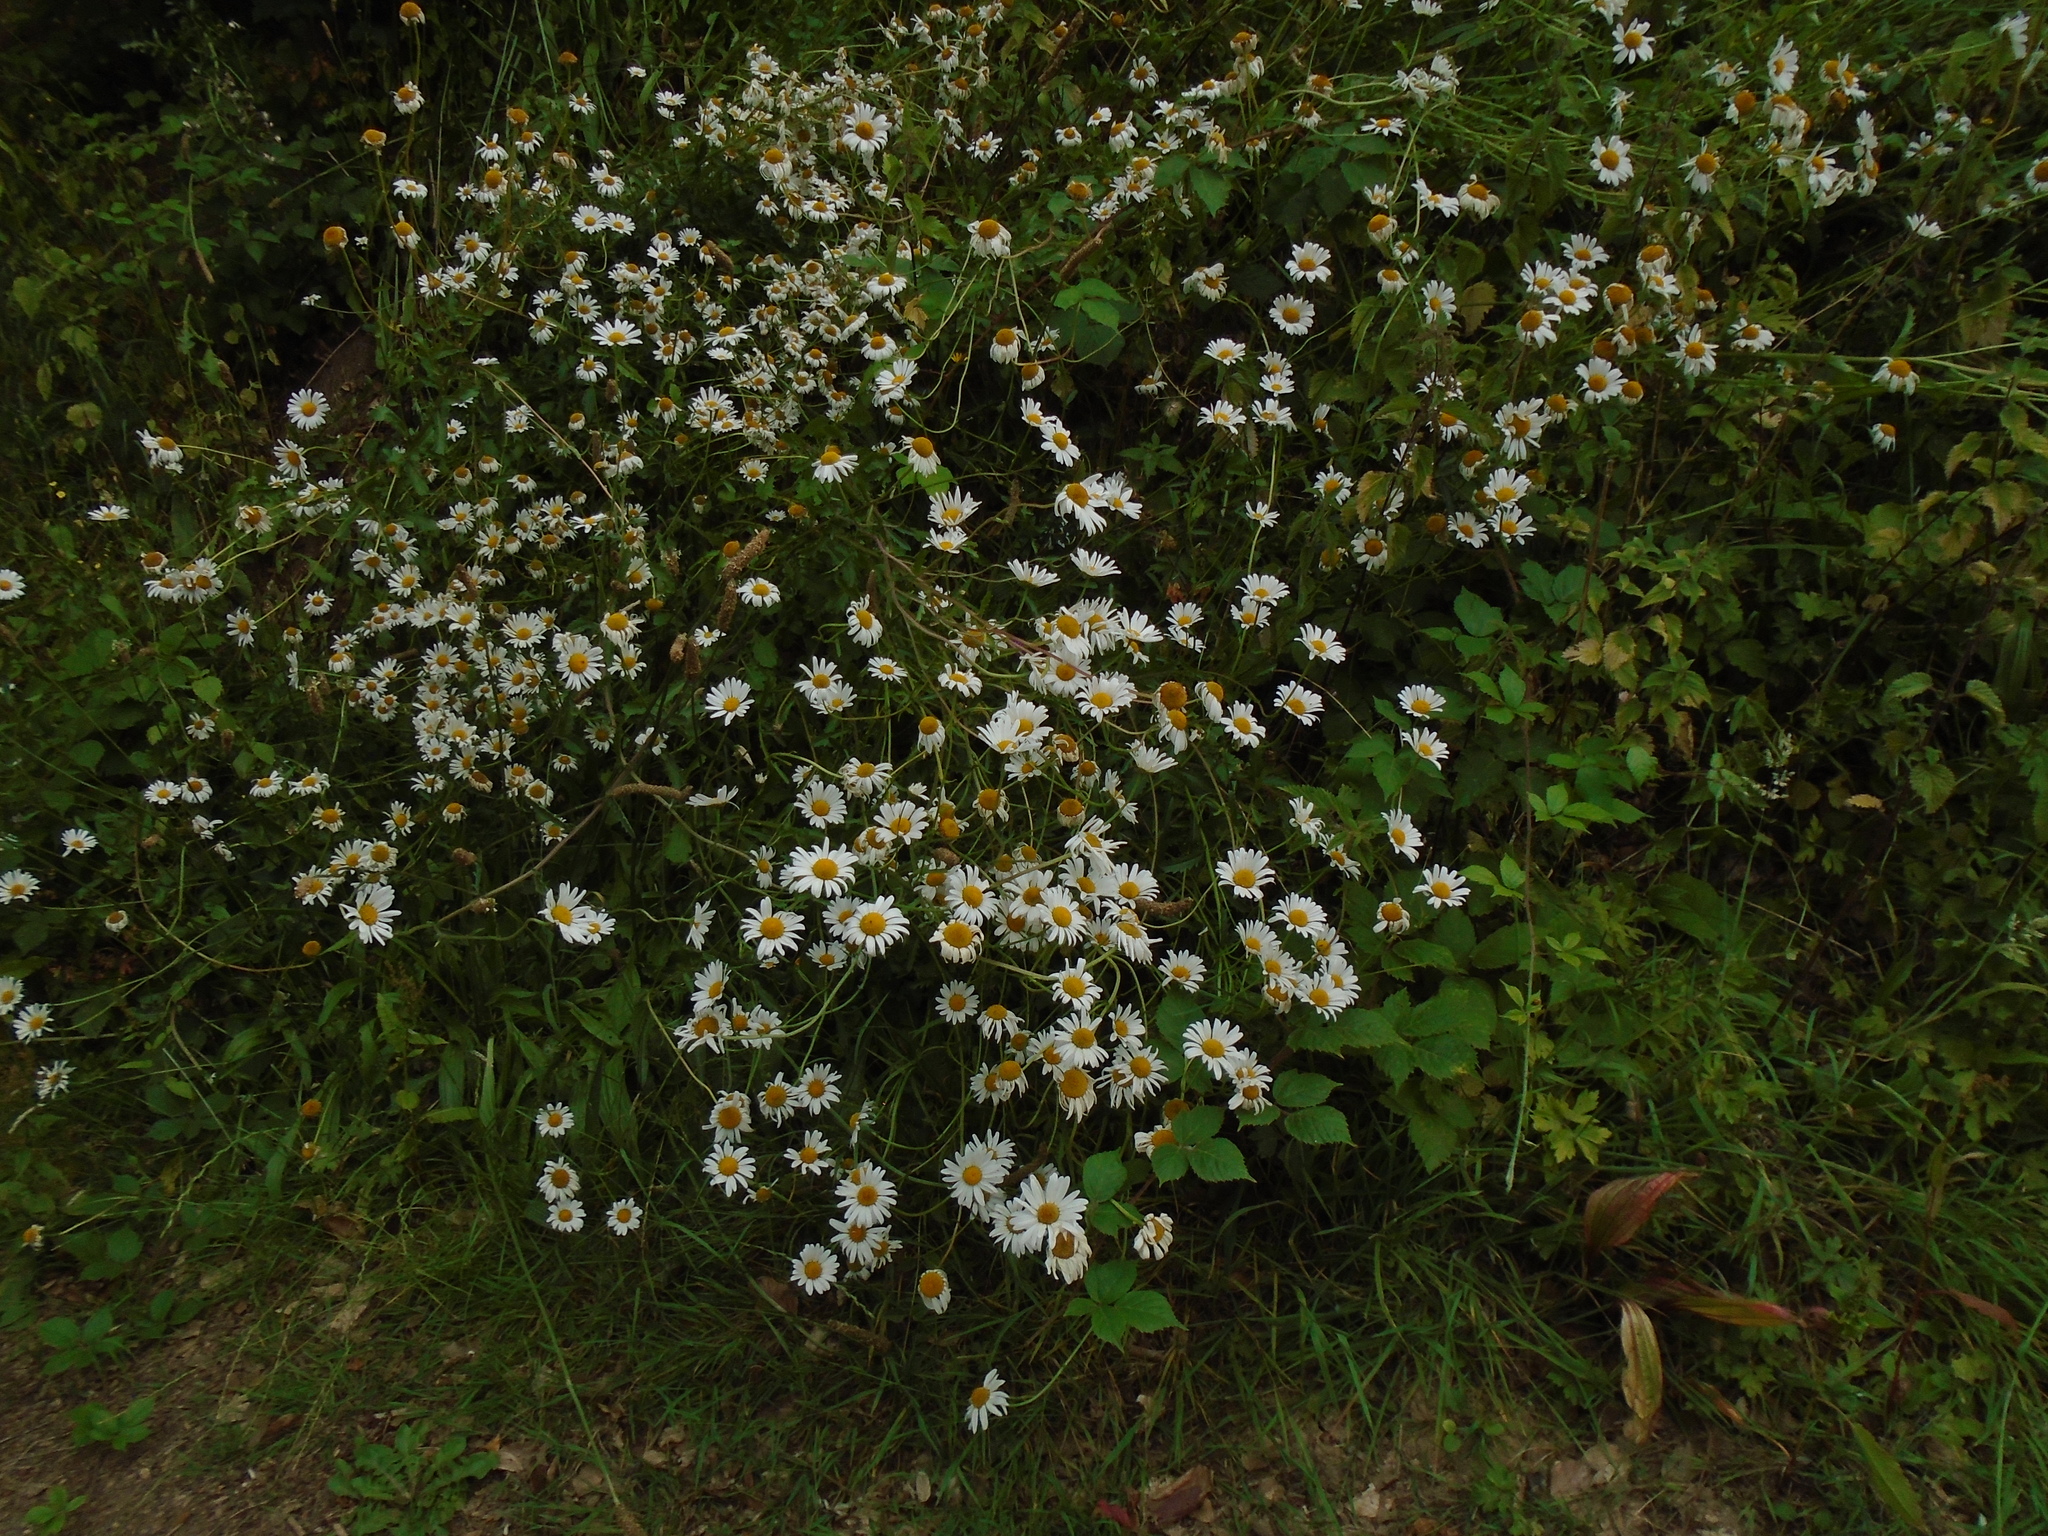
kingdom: Plantae
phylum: Tracheophyta
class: Magnoliopsida
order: Asterales
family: Asteraceae
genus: Leucanthemum
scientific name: Leucanthemum vulgare
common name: Oxeye daisy
